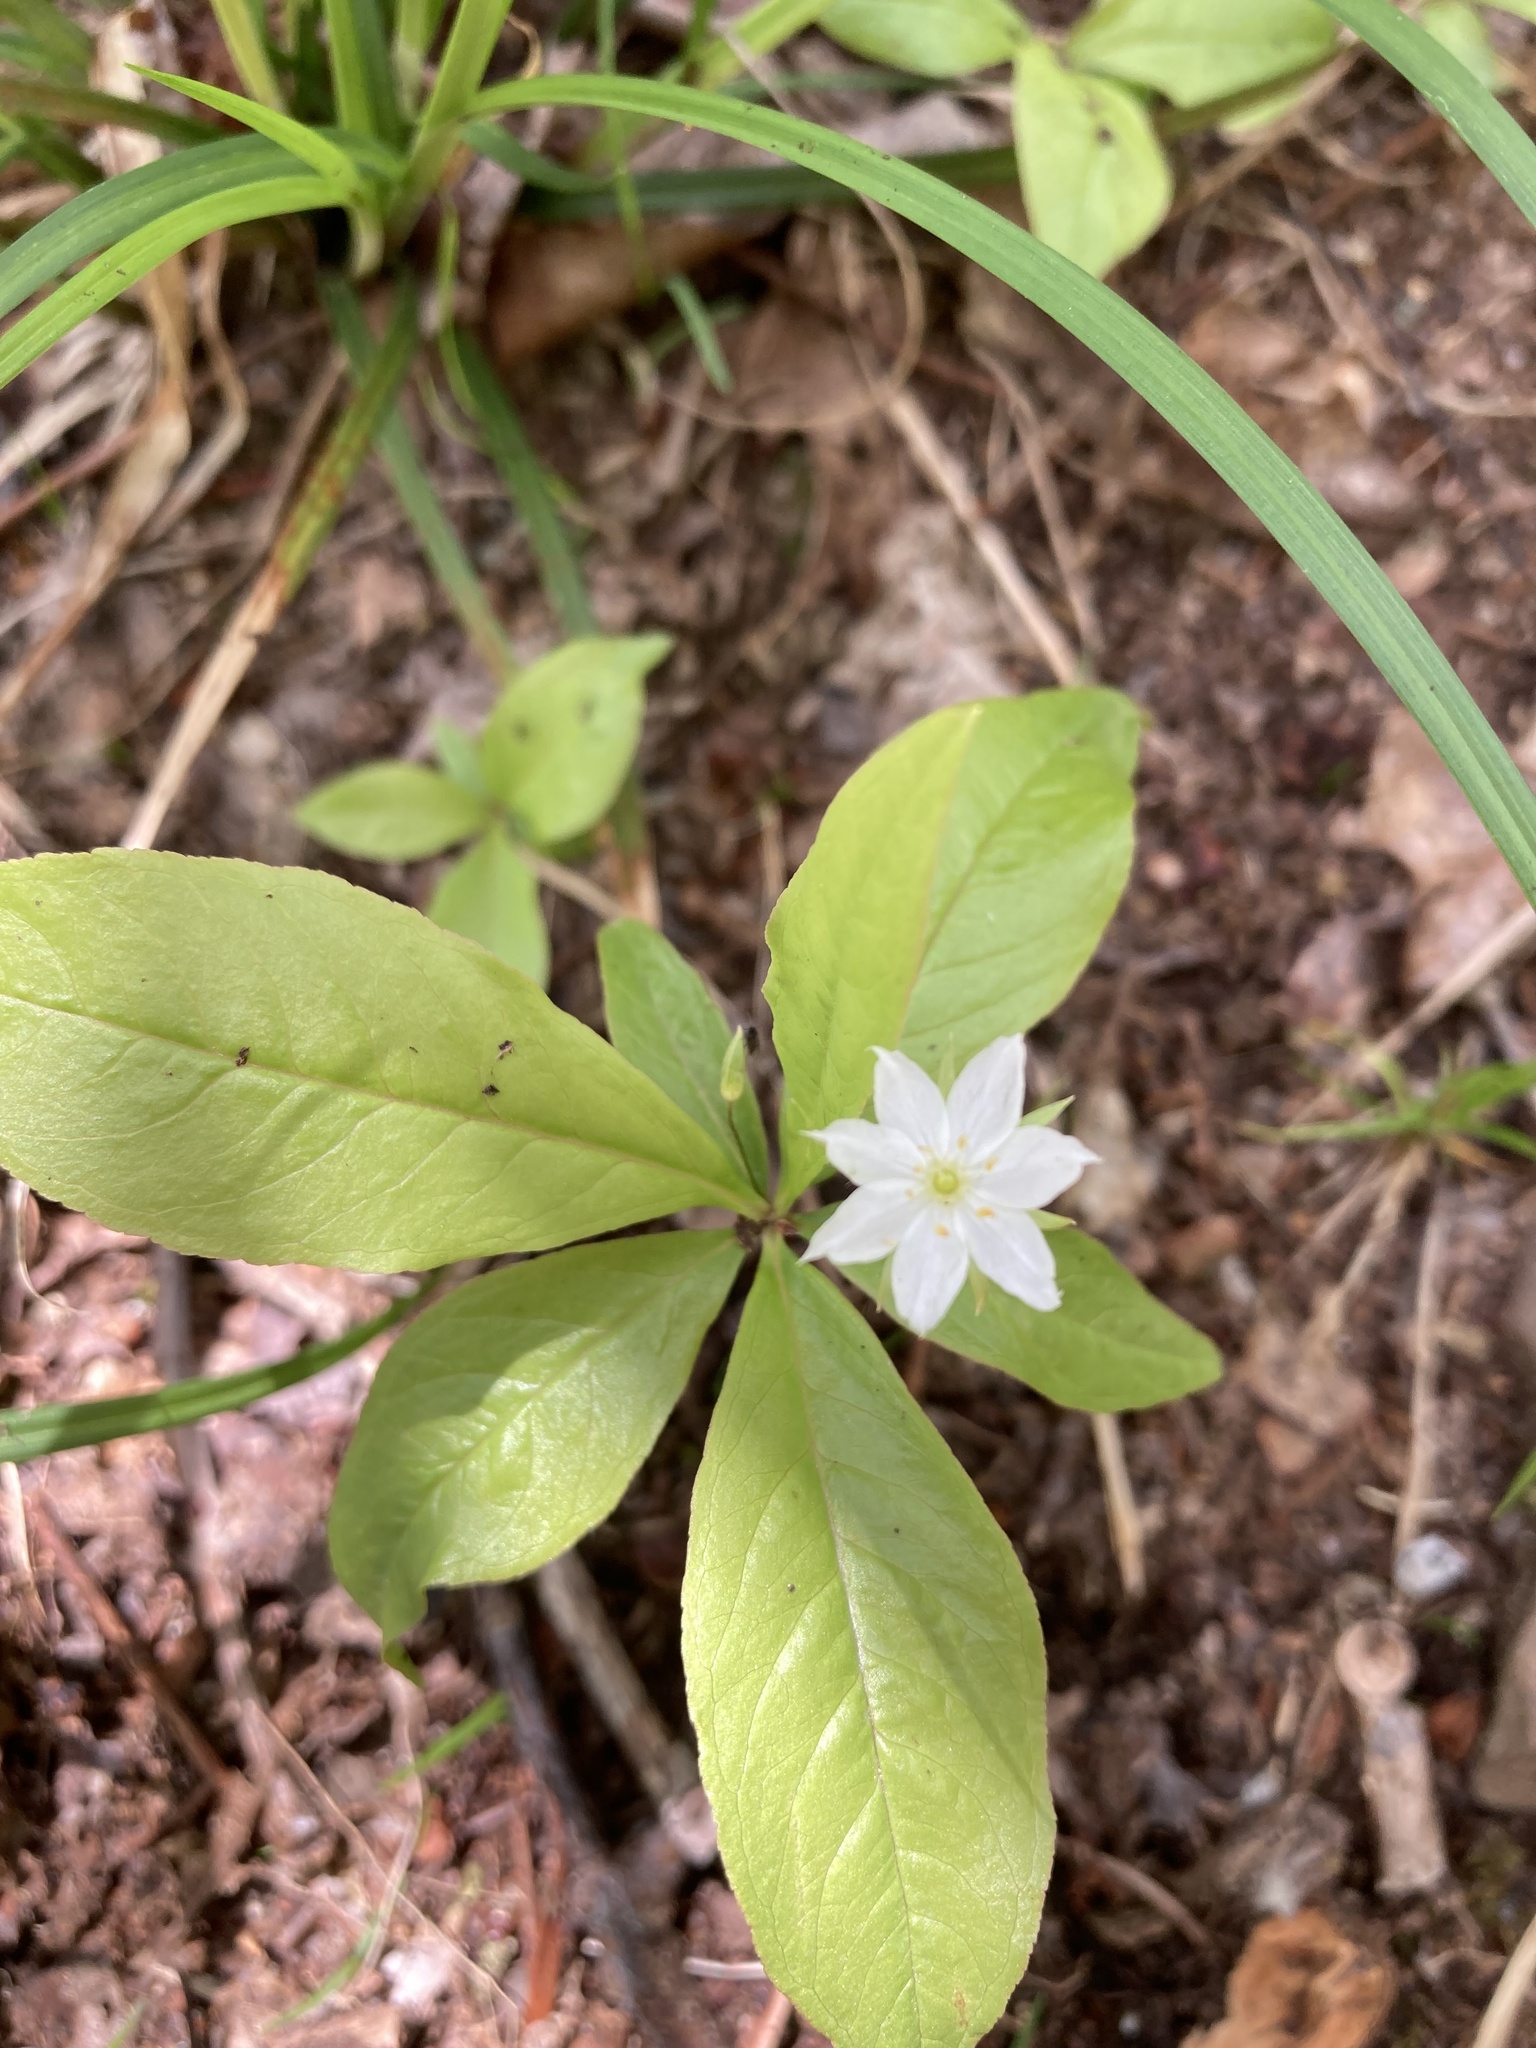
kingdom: Plantae
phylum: Tracheophyta
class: Magnoliopsida
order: Ericales
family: Primulaceae
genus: Lysimachia
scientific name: Lysimachia borealis
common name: American starflower
